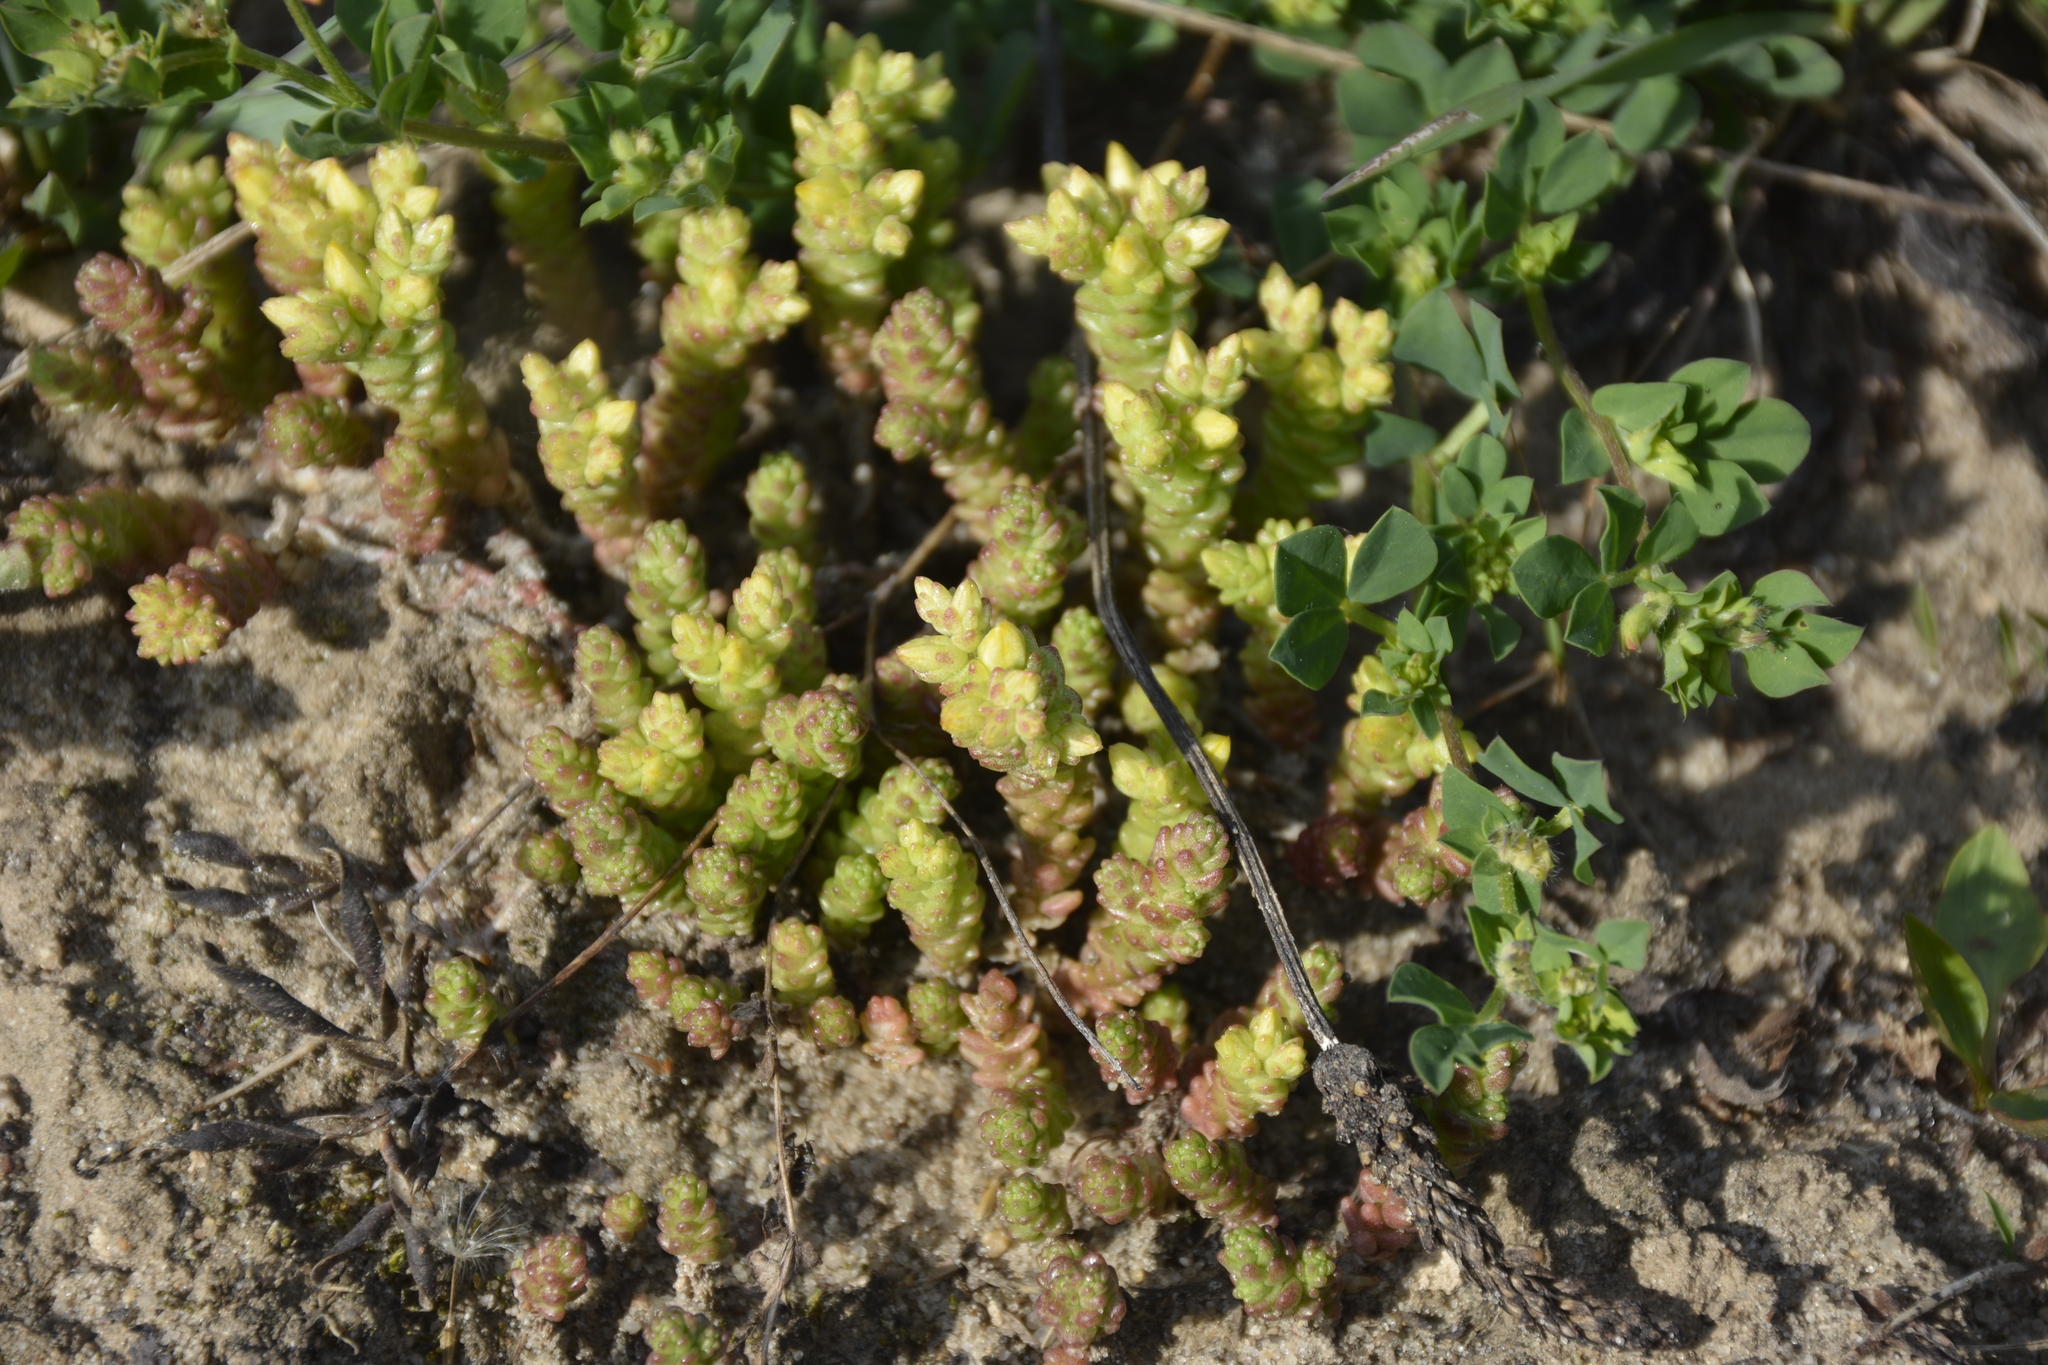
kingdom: Plantae
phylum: Tracheophyta
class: Magnoliopsida
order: Saxifragales
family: Crassulaceae
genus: Sedum
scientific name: Sedum acre
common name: Biting stonecrop
